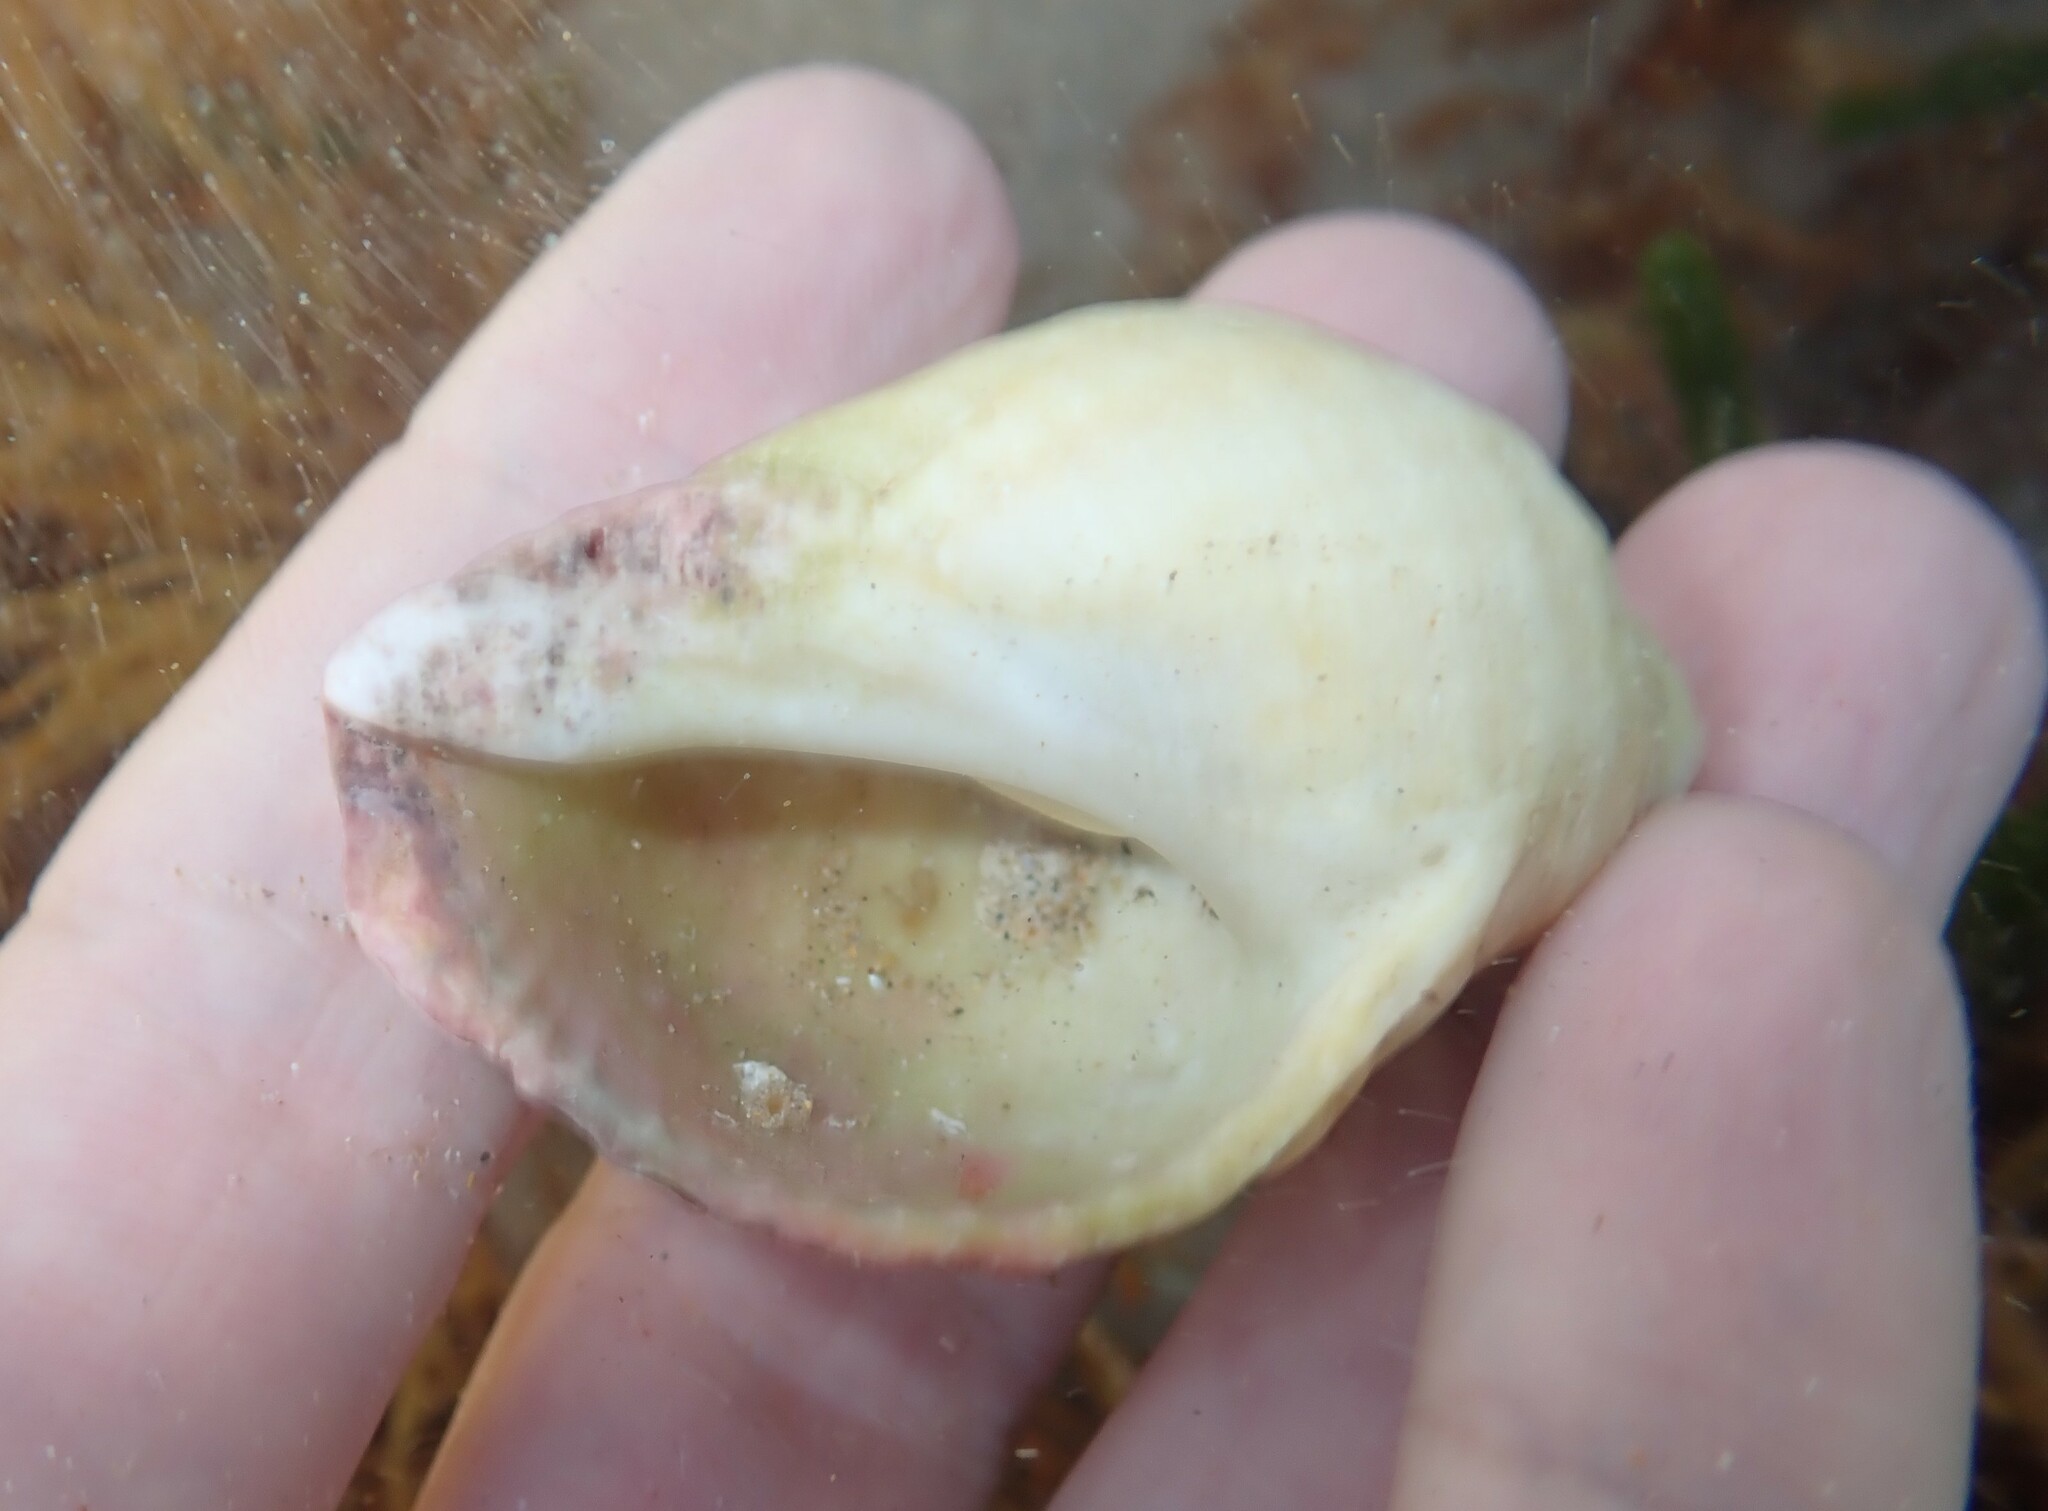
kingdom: Animalia
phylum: Mollusca
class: Gastropoda
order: Neogastropoda
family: Muricidae
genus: Dicathais
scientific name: Dicathais orbita
